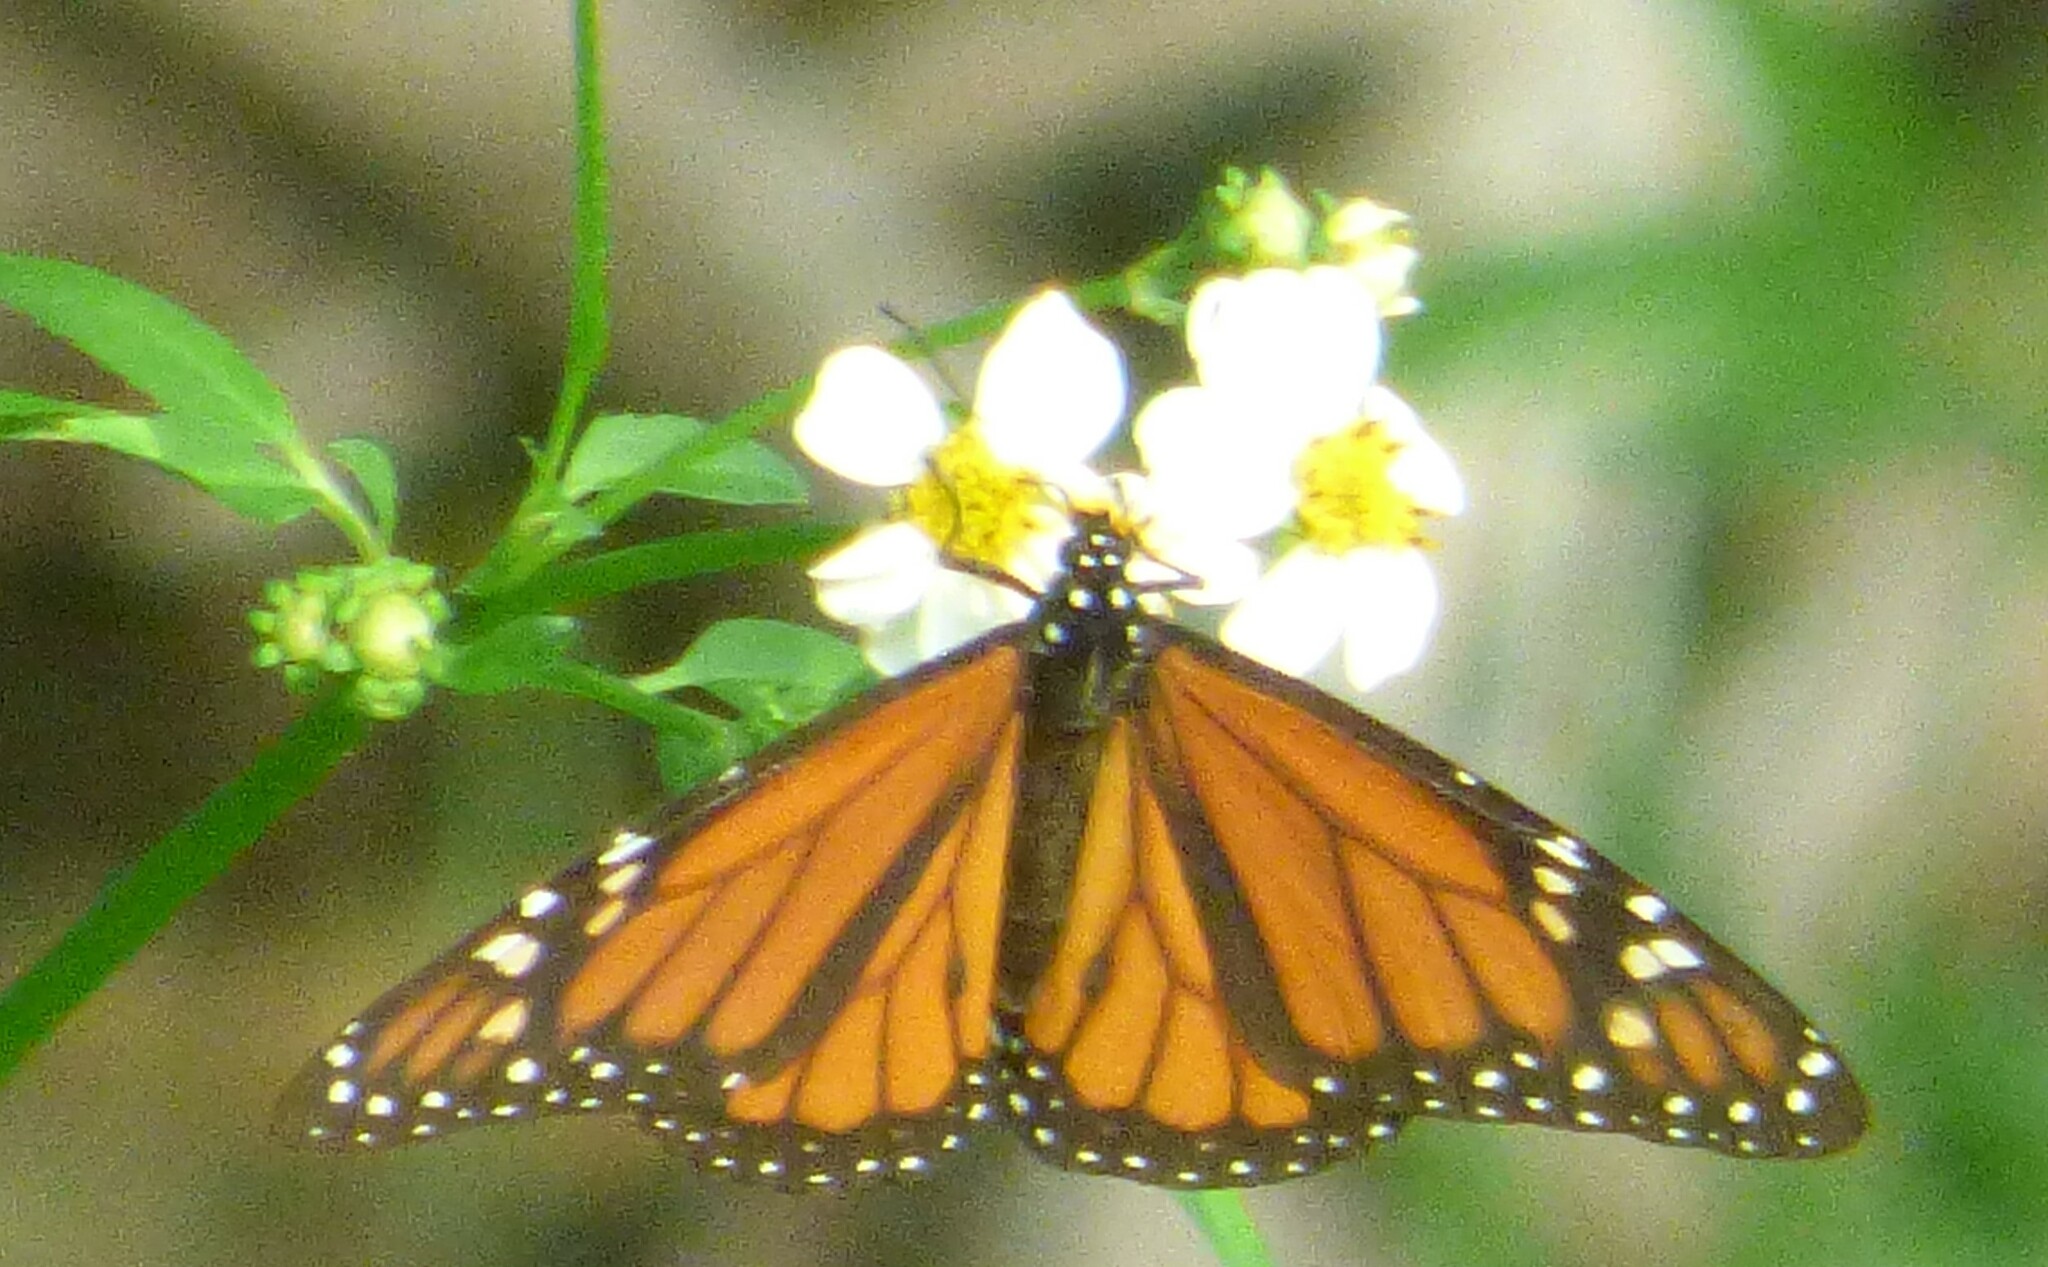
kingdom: Animalia
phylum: Arthropoda
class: Insecta
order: Lepidoptera
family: Nymphalidae
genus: Danaus
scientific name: Danaus plexippus
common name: Monarch
